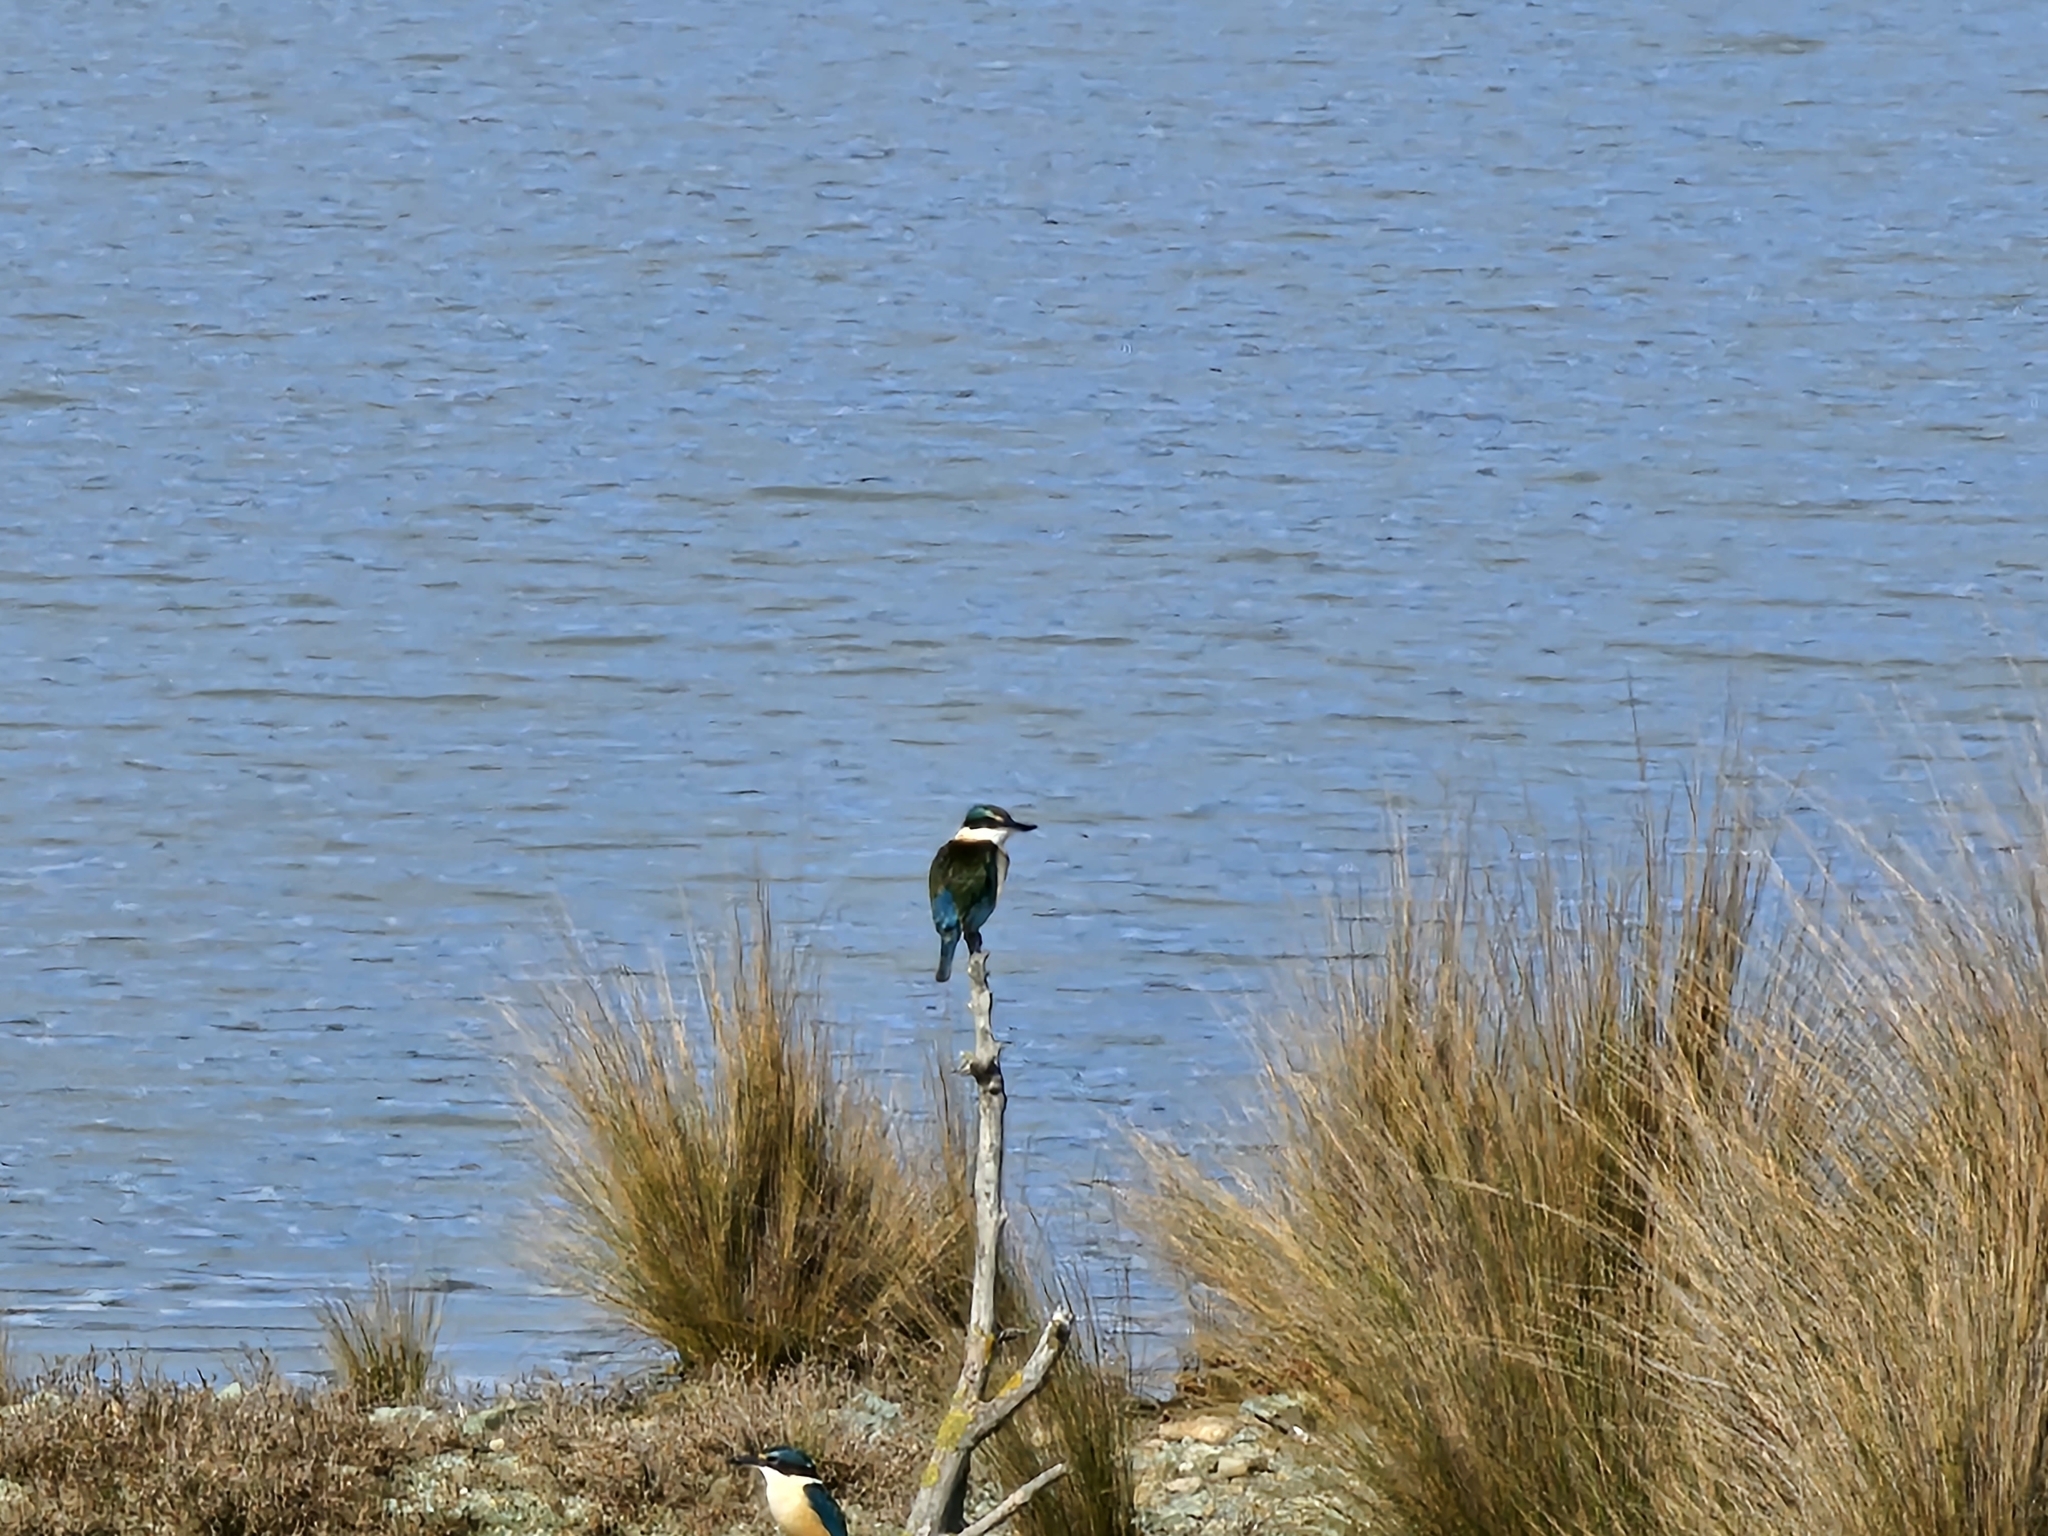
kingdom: Animalia
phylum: Chordata
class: Aves
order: Coraciiformes
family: Alcedinidae
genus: Todiramphus
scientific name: Todiramphus sanctus
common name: Sacred kingfisher
